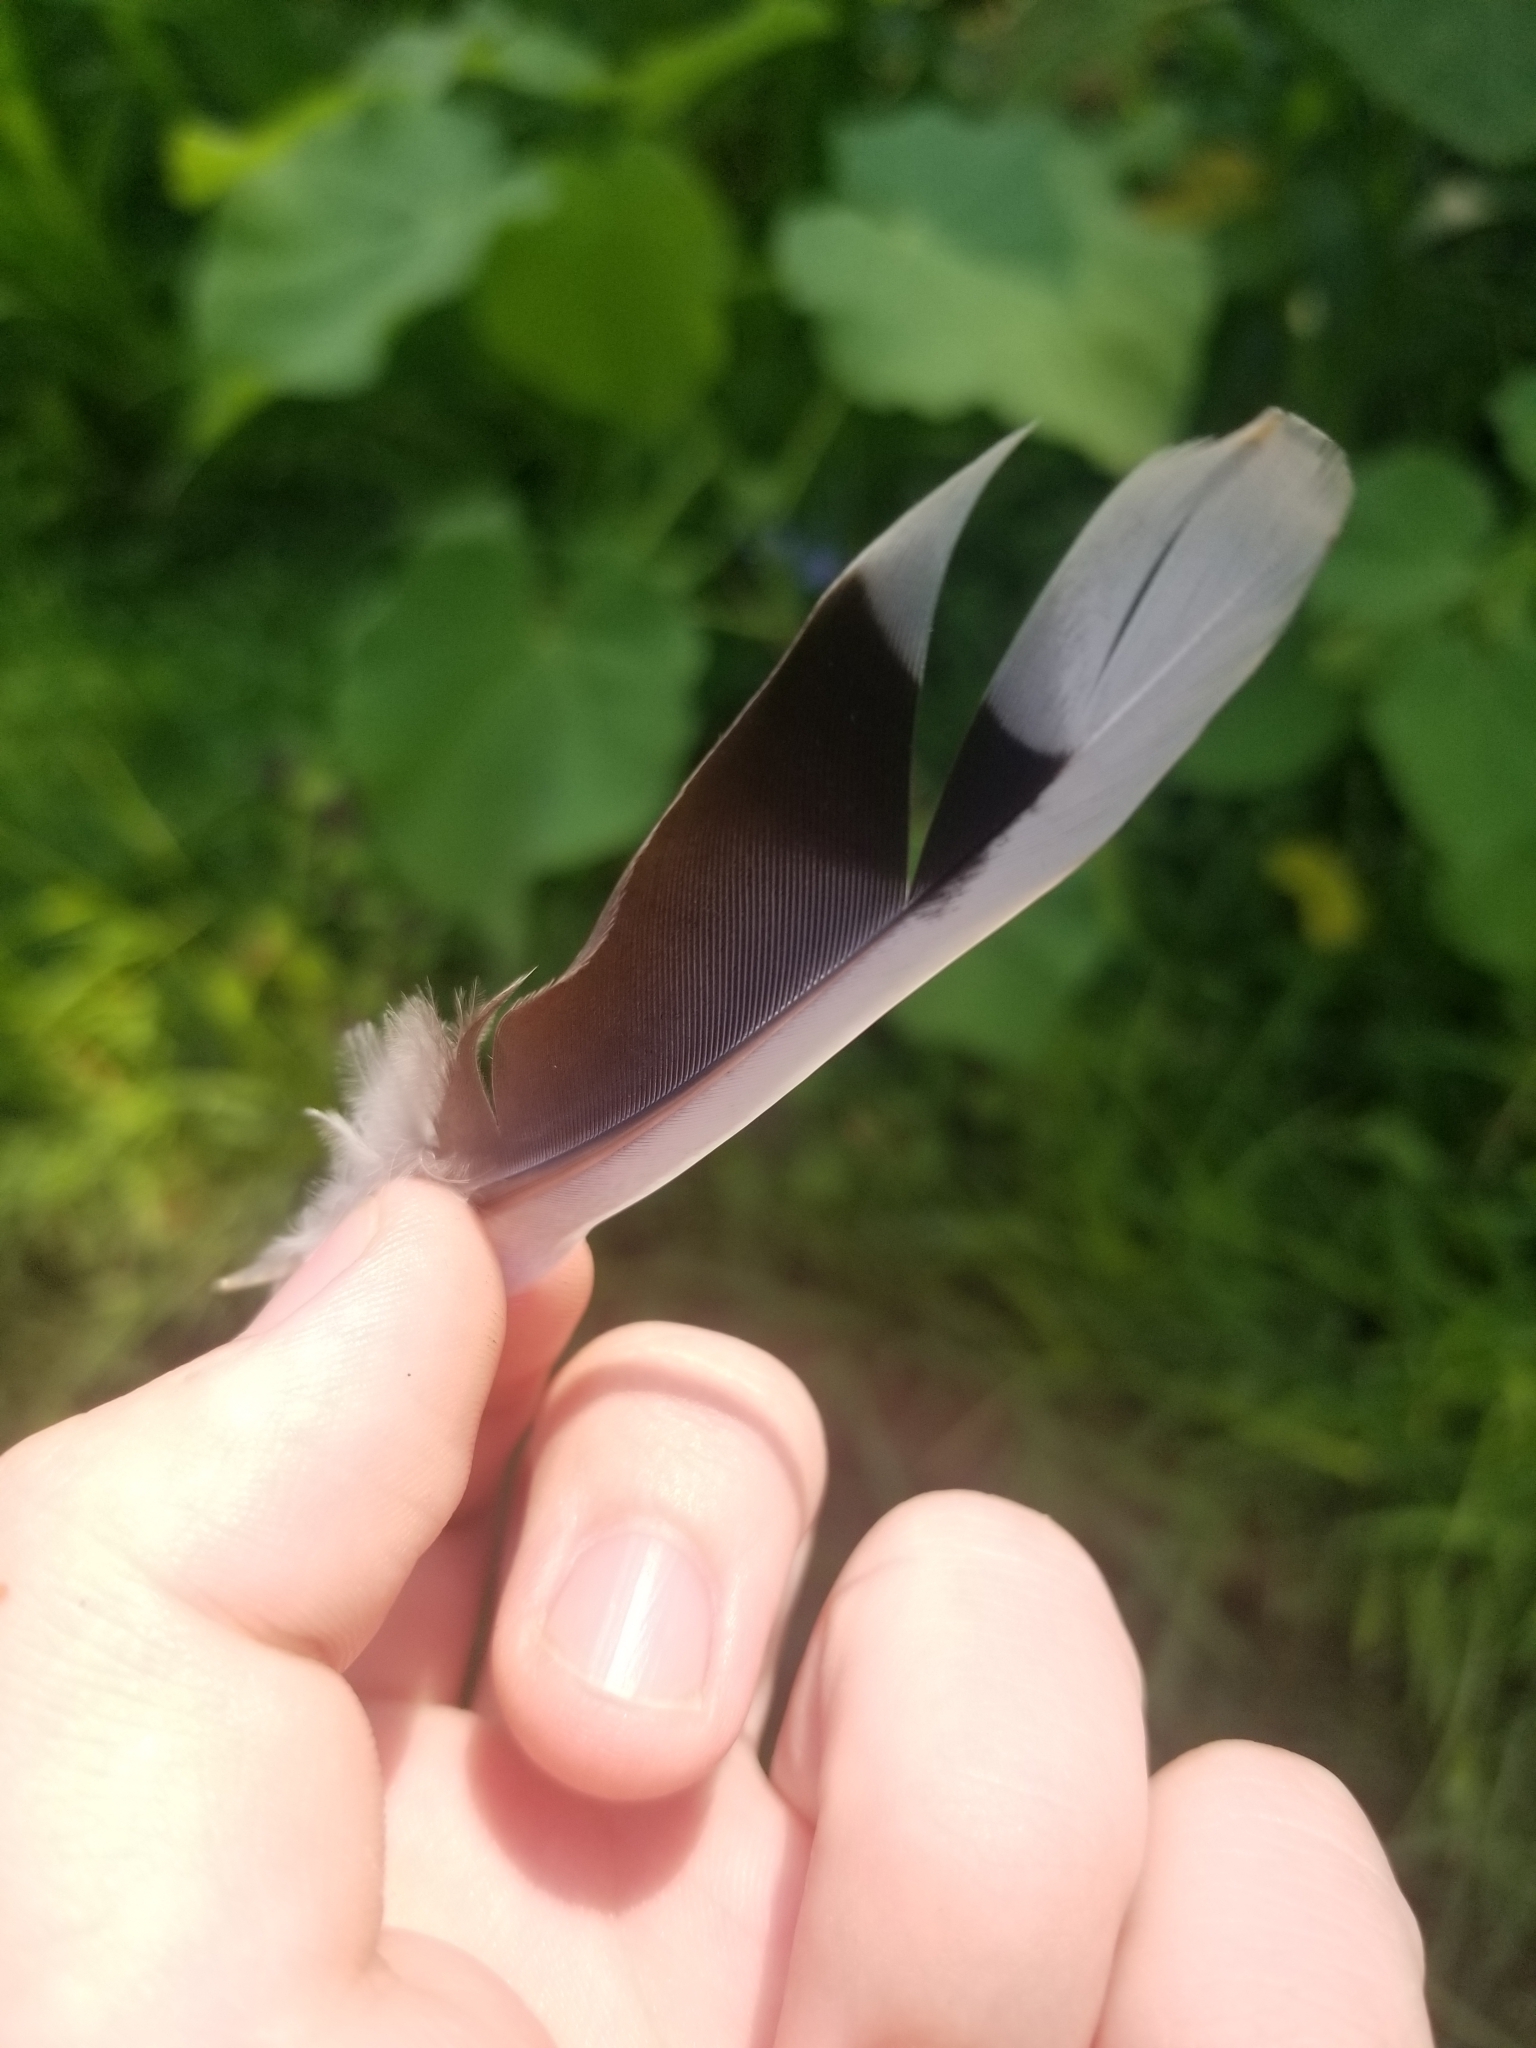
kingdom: Animalia
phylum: Chordata
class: Aves
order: Columbiformes
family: Columbidae
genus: Zenaida
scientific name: Zenaida macroura
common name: Mourning dove
